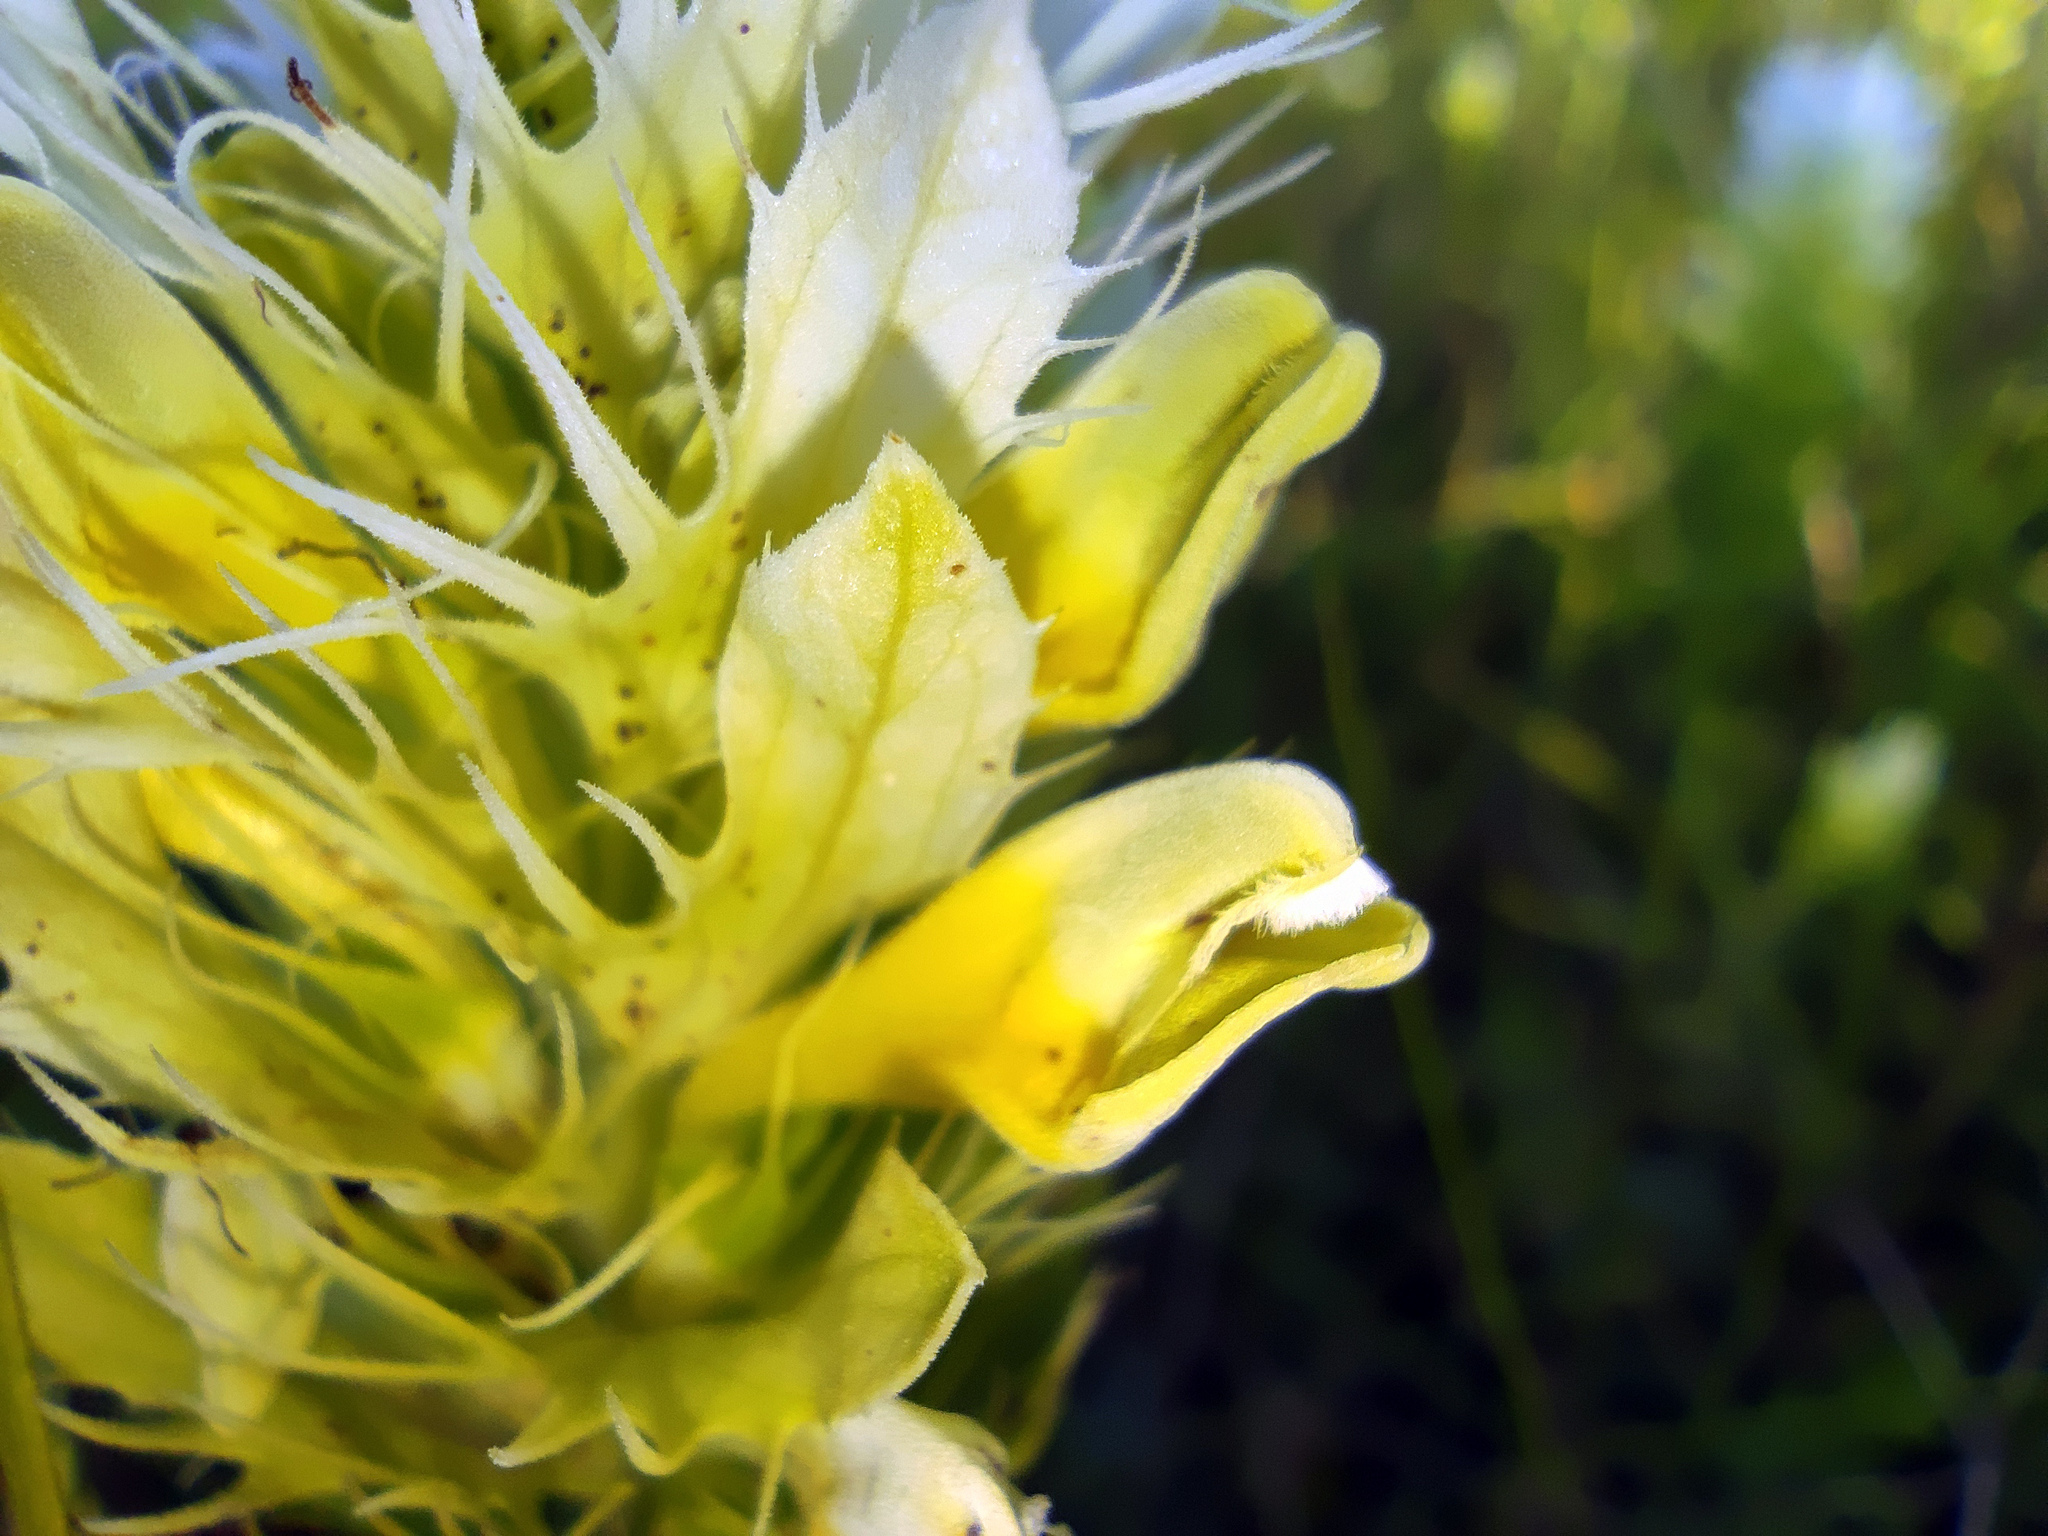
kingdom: Plantae
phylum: Tracheophyta
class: Magnoliopsida
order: Lamiales
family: Orobanchaceae
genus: Melampyrum
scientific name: Melampyrum arvense
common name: Field cow-wheat
